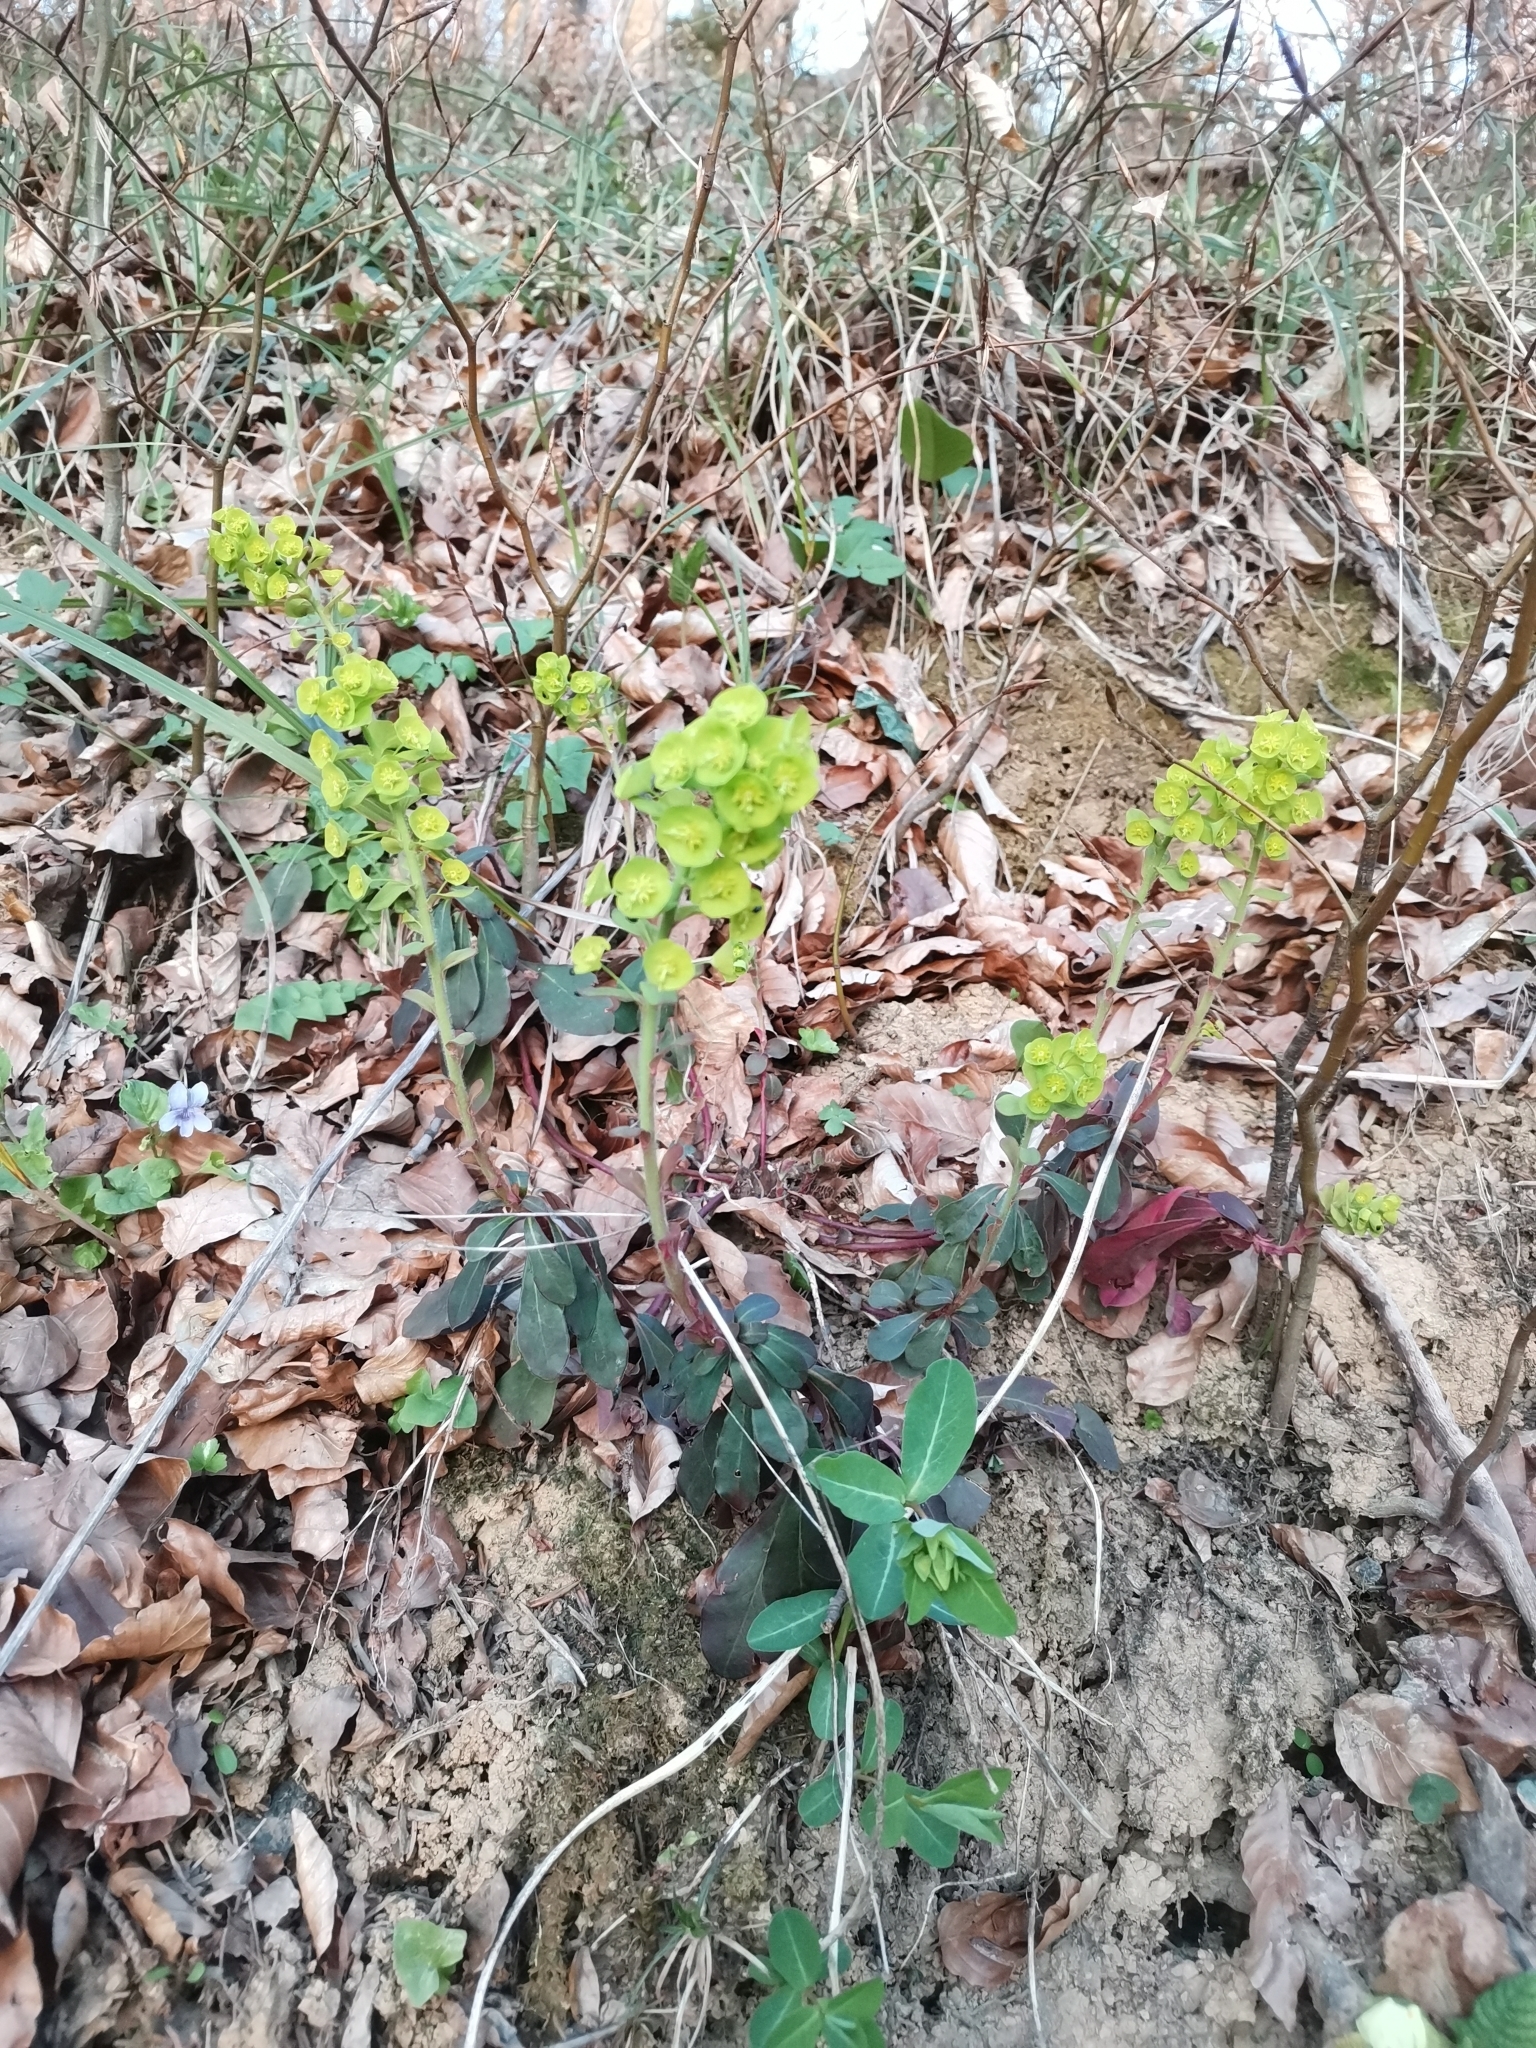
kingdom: Plantae
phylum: Tracheophyta
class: Magnoliopsida
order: Malpighiales
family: Euphorbiaceae
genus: Euphorbia
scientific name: Euphorbia amygdaloides
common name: Wood spurge
